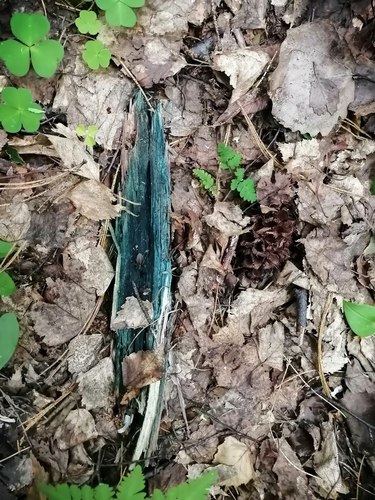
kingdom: Fungi
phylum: Ascomycota
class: Leotiomycetes
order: Helotiales
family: Chlorociboriaceae
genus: Chlorociboria
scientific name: Chlorociboria
